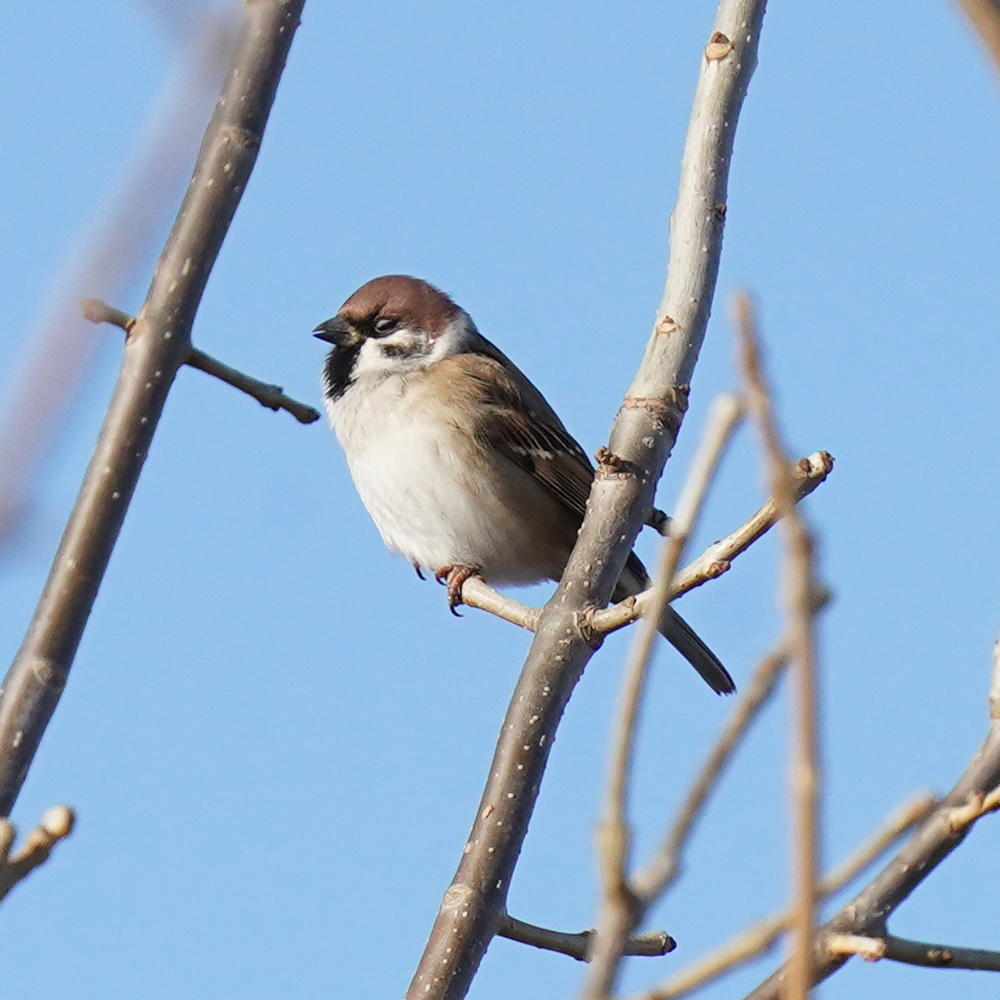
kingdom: Animalia
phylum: Chordata
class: Aves
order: Passeriformes
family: Passeridae
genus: Passer
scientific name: Passer montanus
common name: Eurasian tree sparrow
